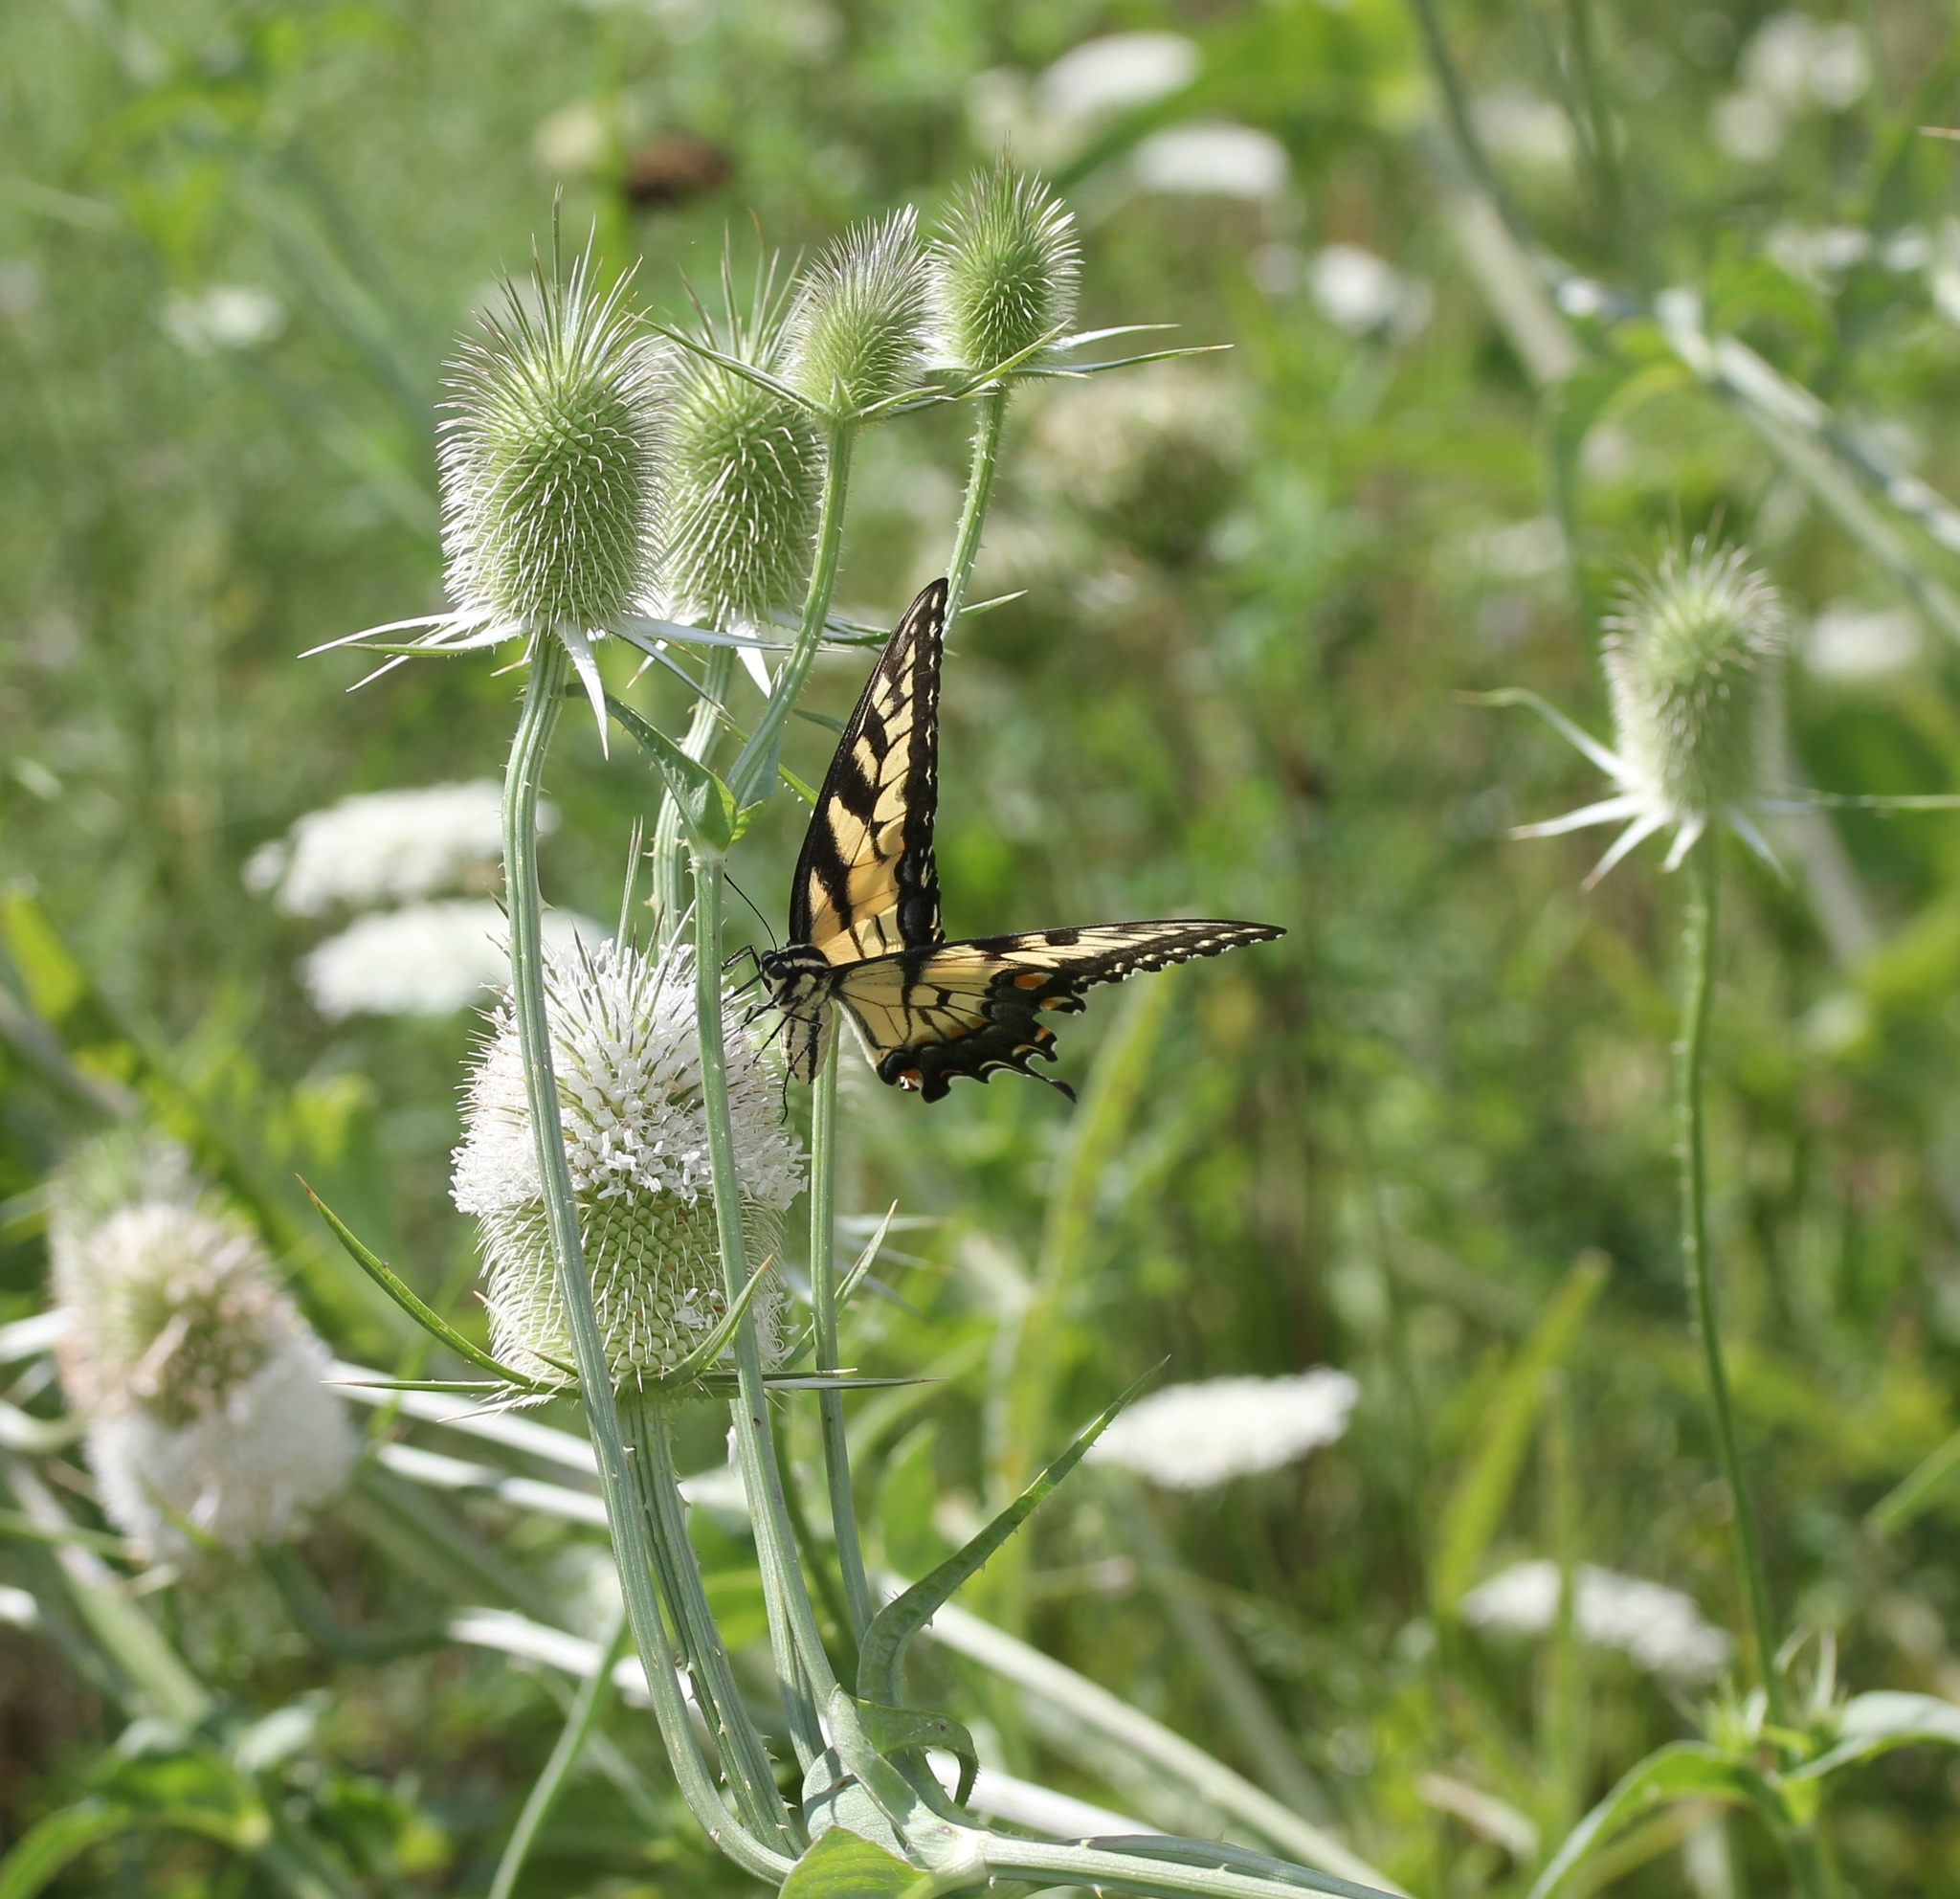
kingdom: Animalia
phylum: Arthropoda
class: Insecta
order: Lepidoptera
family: Papilionidae
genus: Papilio
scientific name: Papilio glaucus
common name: Tiger swallowtail
